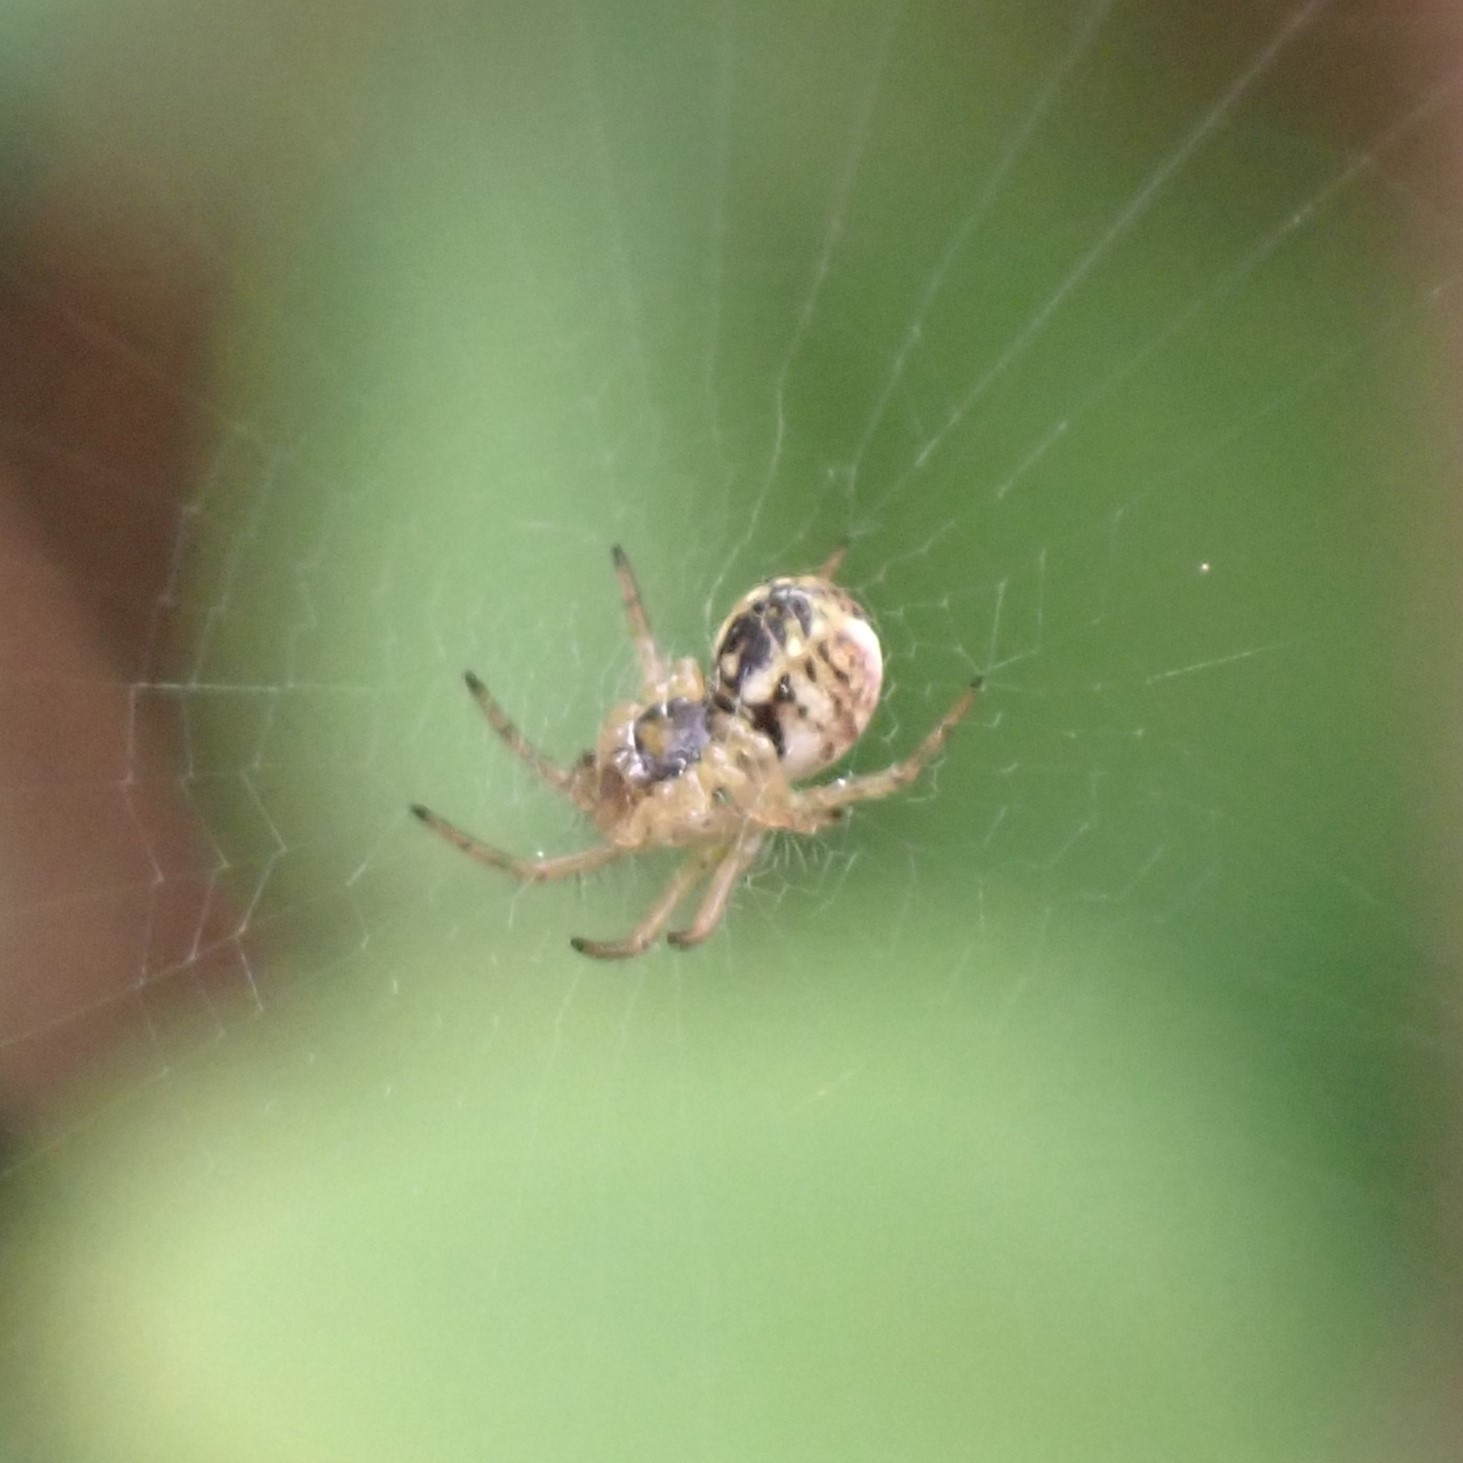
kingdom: Animalia
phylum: Arthropoda
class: Arachnida
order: Araneae
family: Araneidae
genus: Mangora
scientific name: Mangora acalypha
